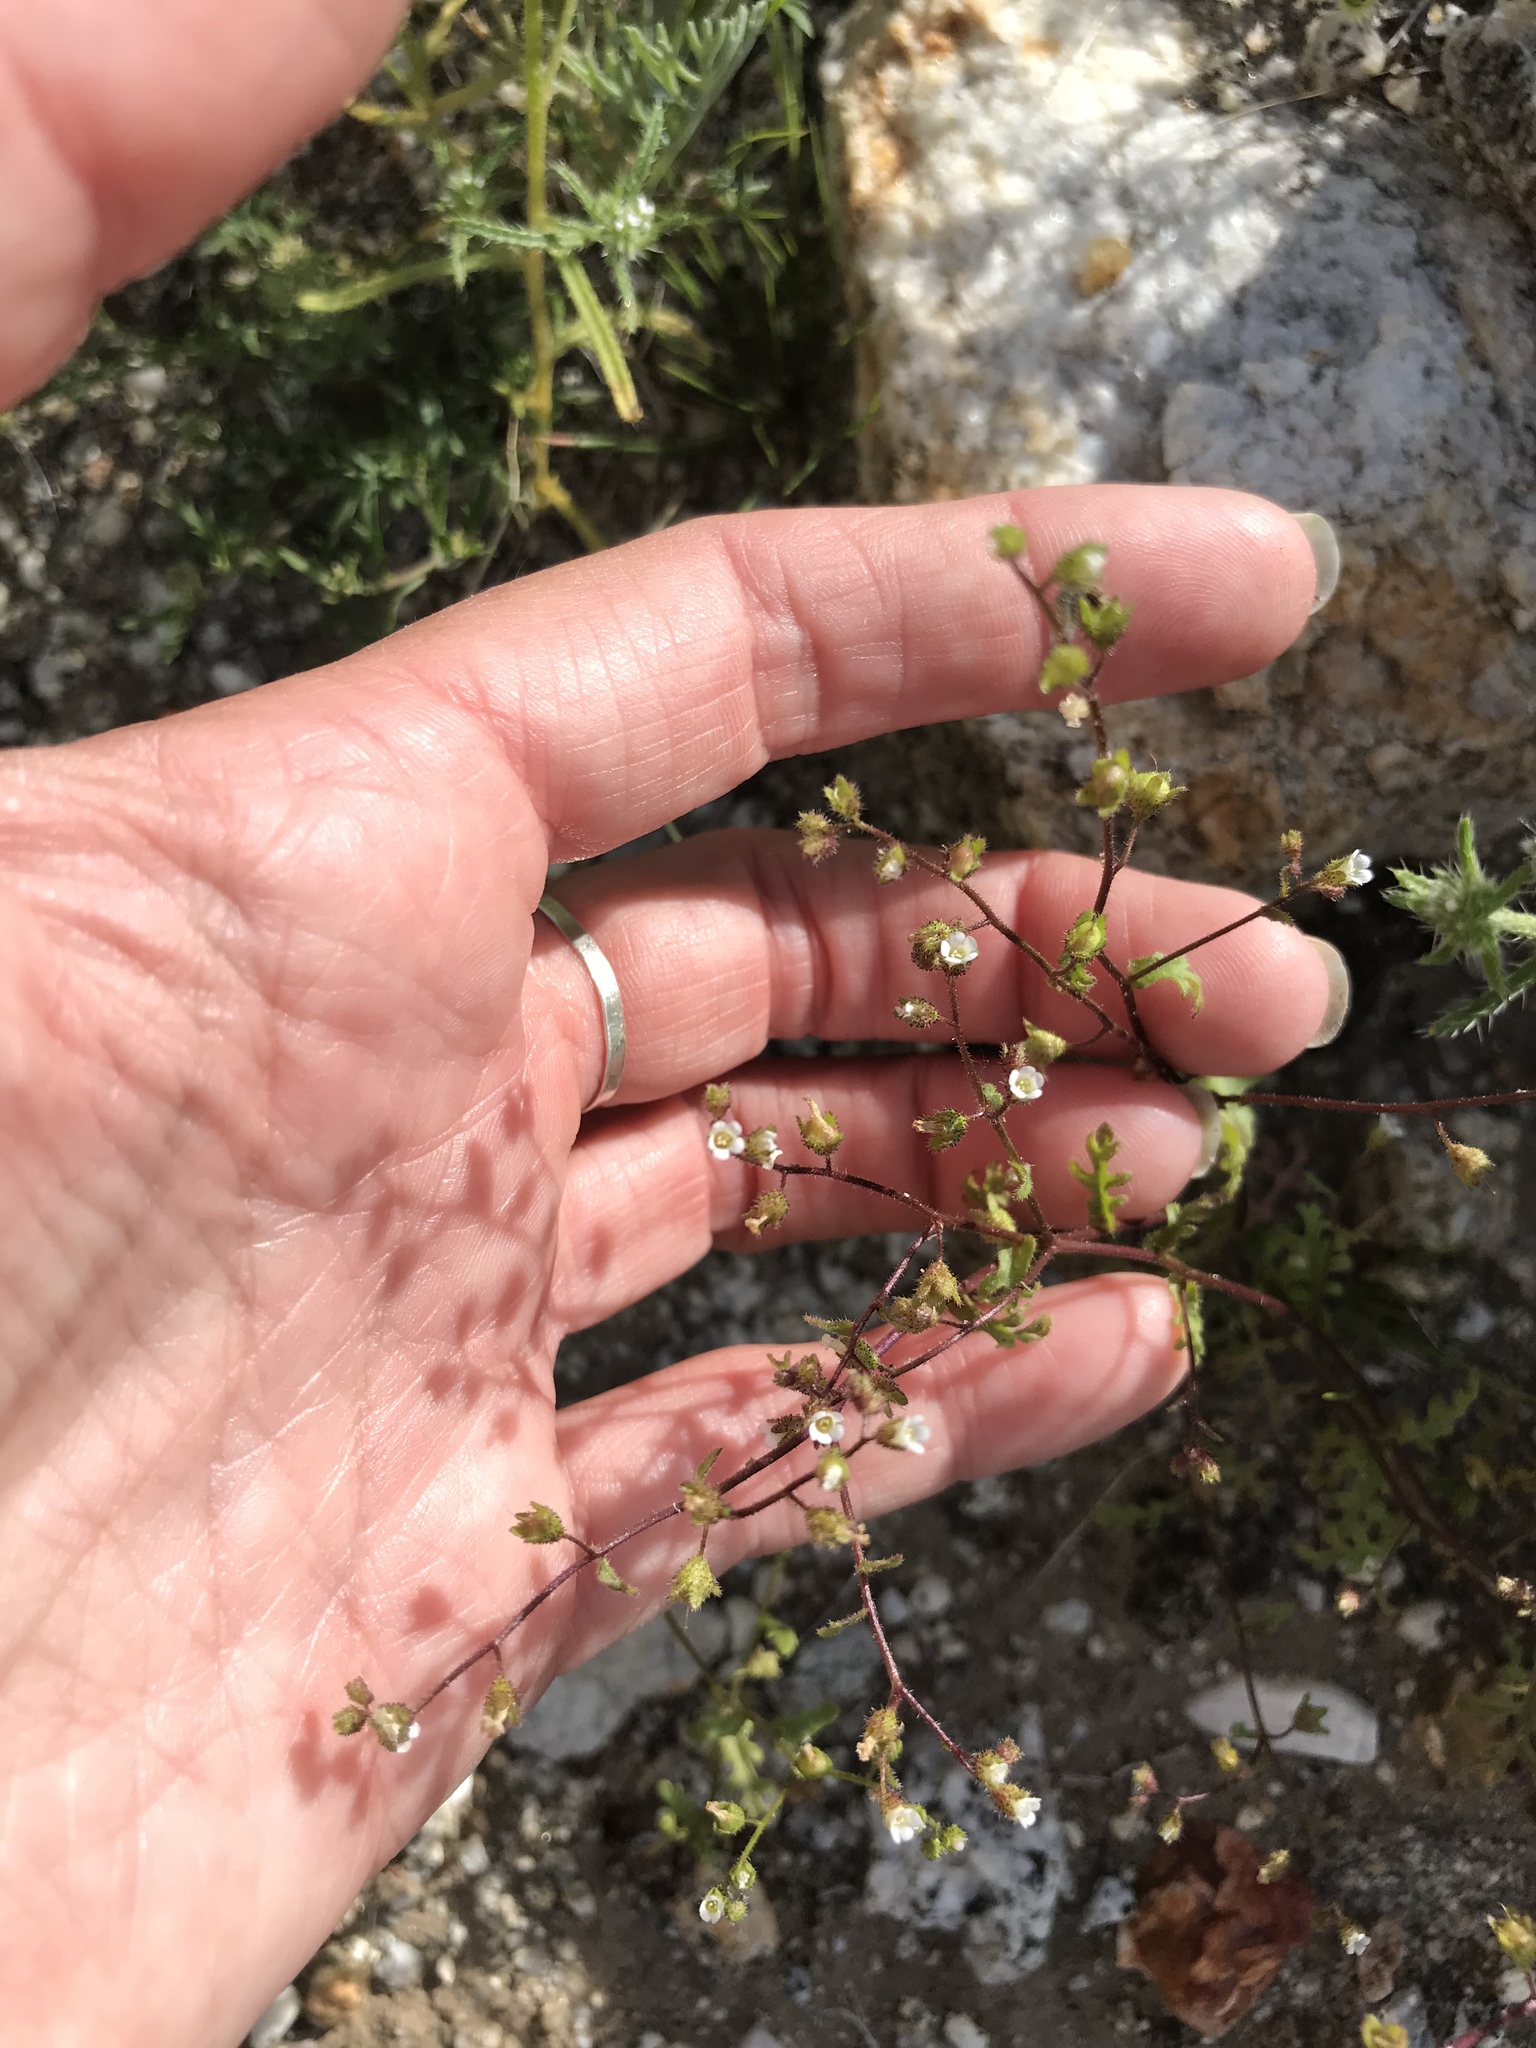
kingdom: Plantae
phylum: Tracheophyta
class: Magnoliopsida
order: Boraginales
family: Hydrophyllaceae
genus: Eucrypta
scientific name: Eucrypta micrantha
